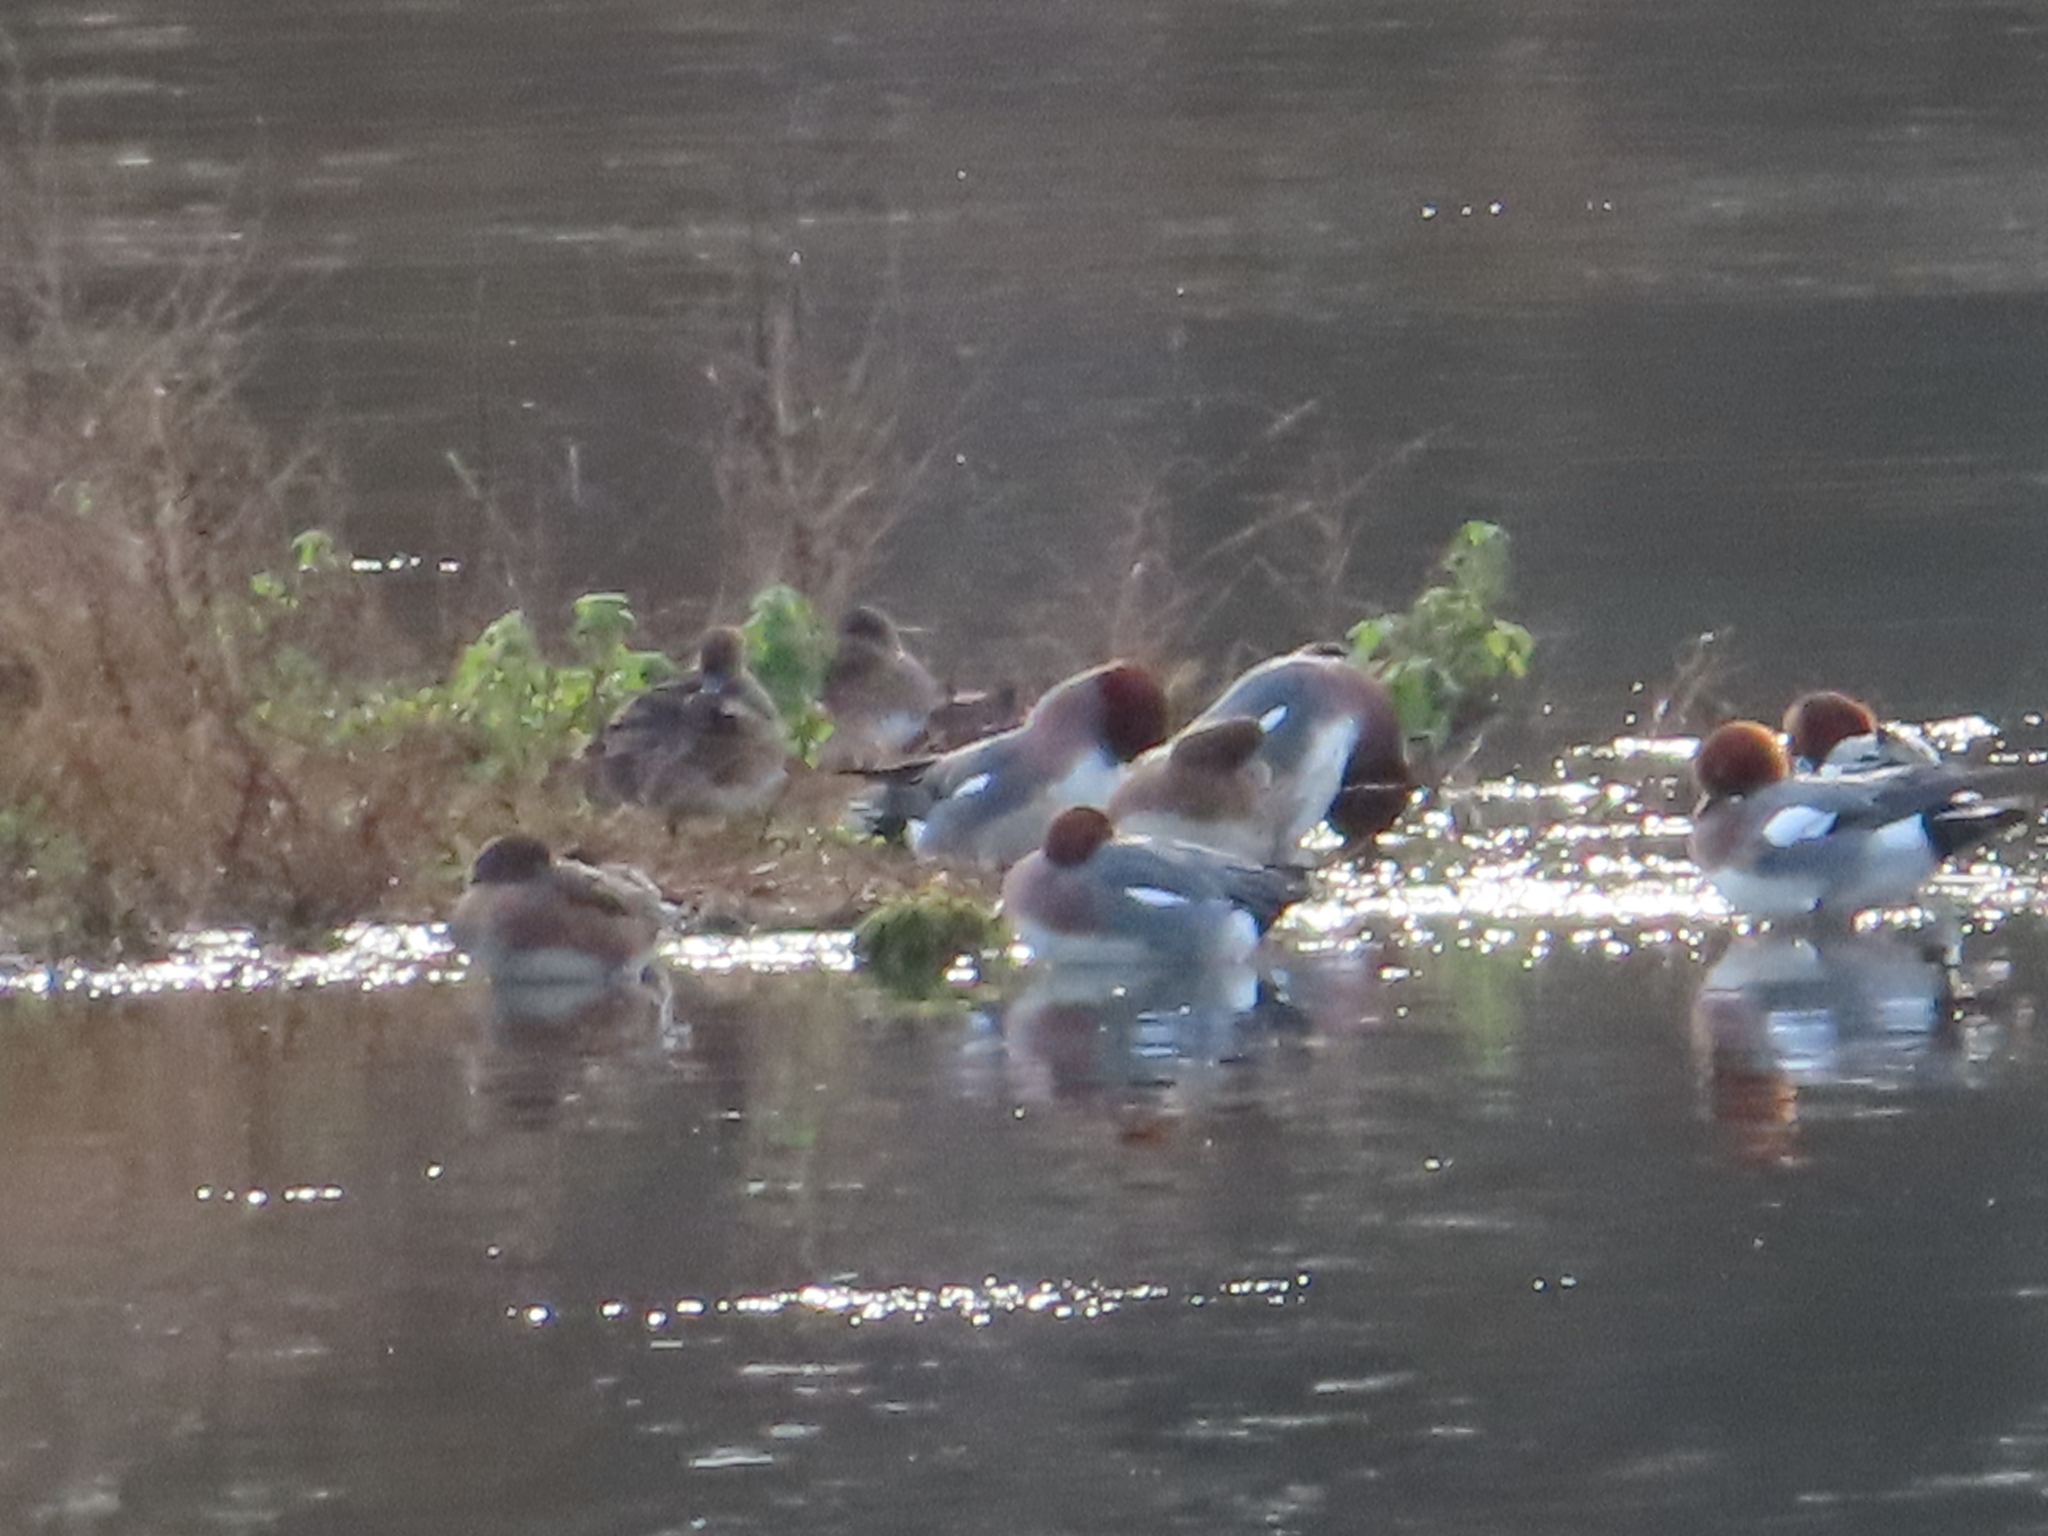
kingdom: Animalia
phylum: Chordata
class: Aves
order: Anseriformes
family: Anatidae
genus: Mareca
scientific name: Mareca penelope
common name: Eurasian wigeon
